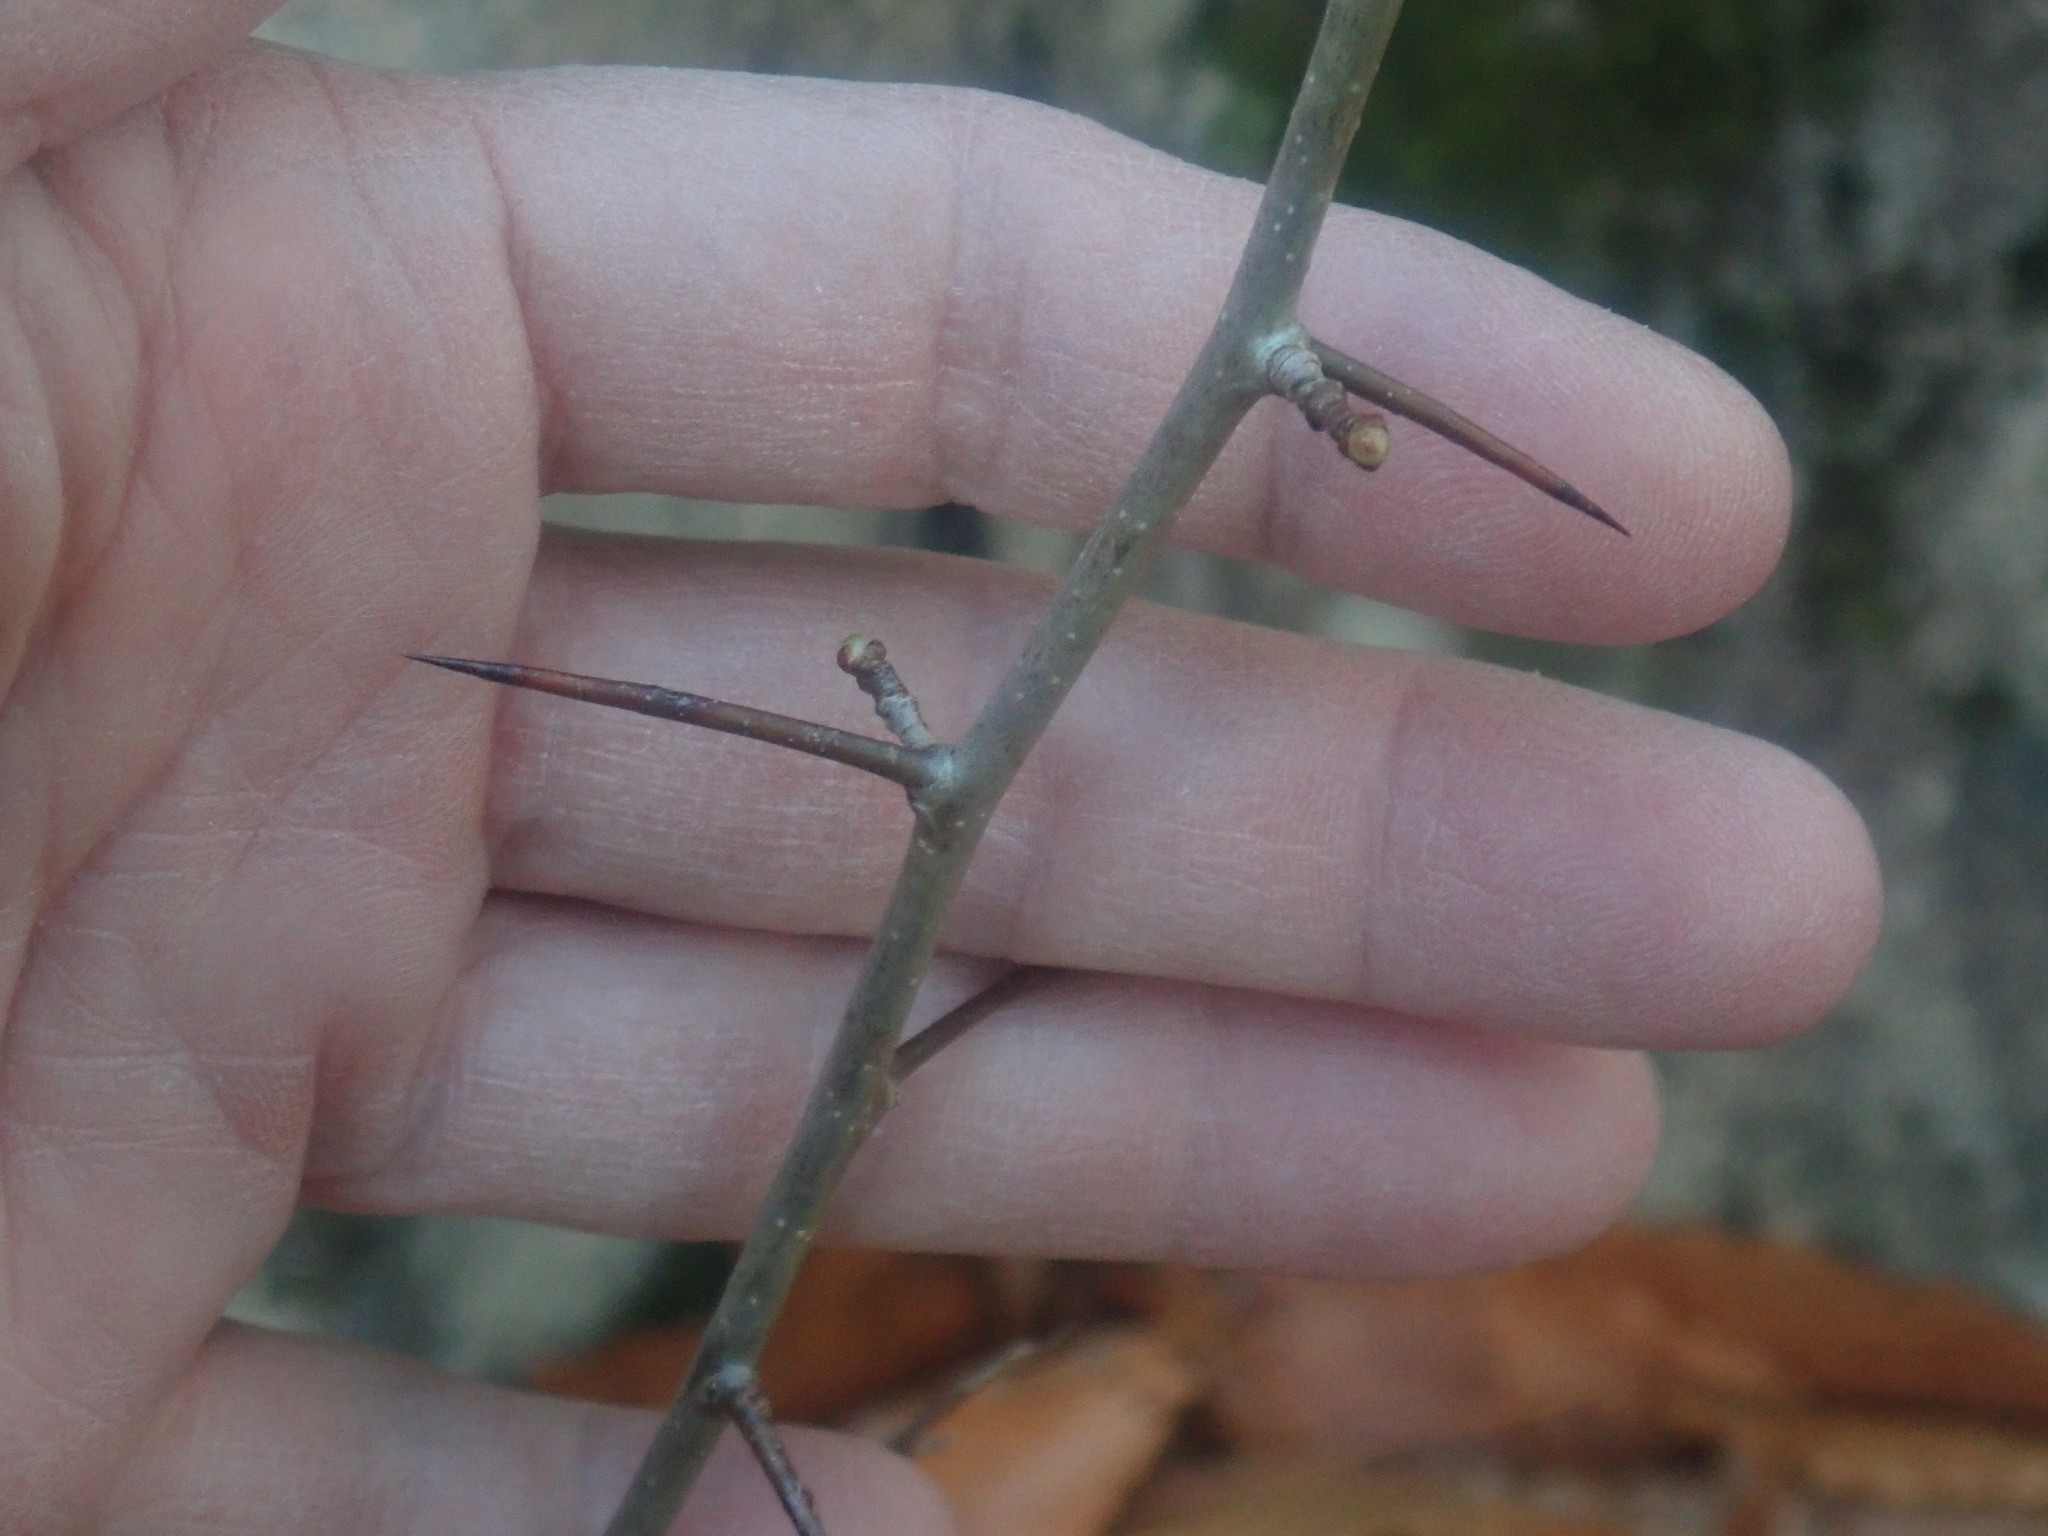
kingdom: Plantae
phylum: Tracheophyta
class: Magnoliopsida
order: Rosales
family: Rosaceae
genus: Crataegus
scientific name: Crataegus
